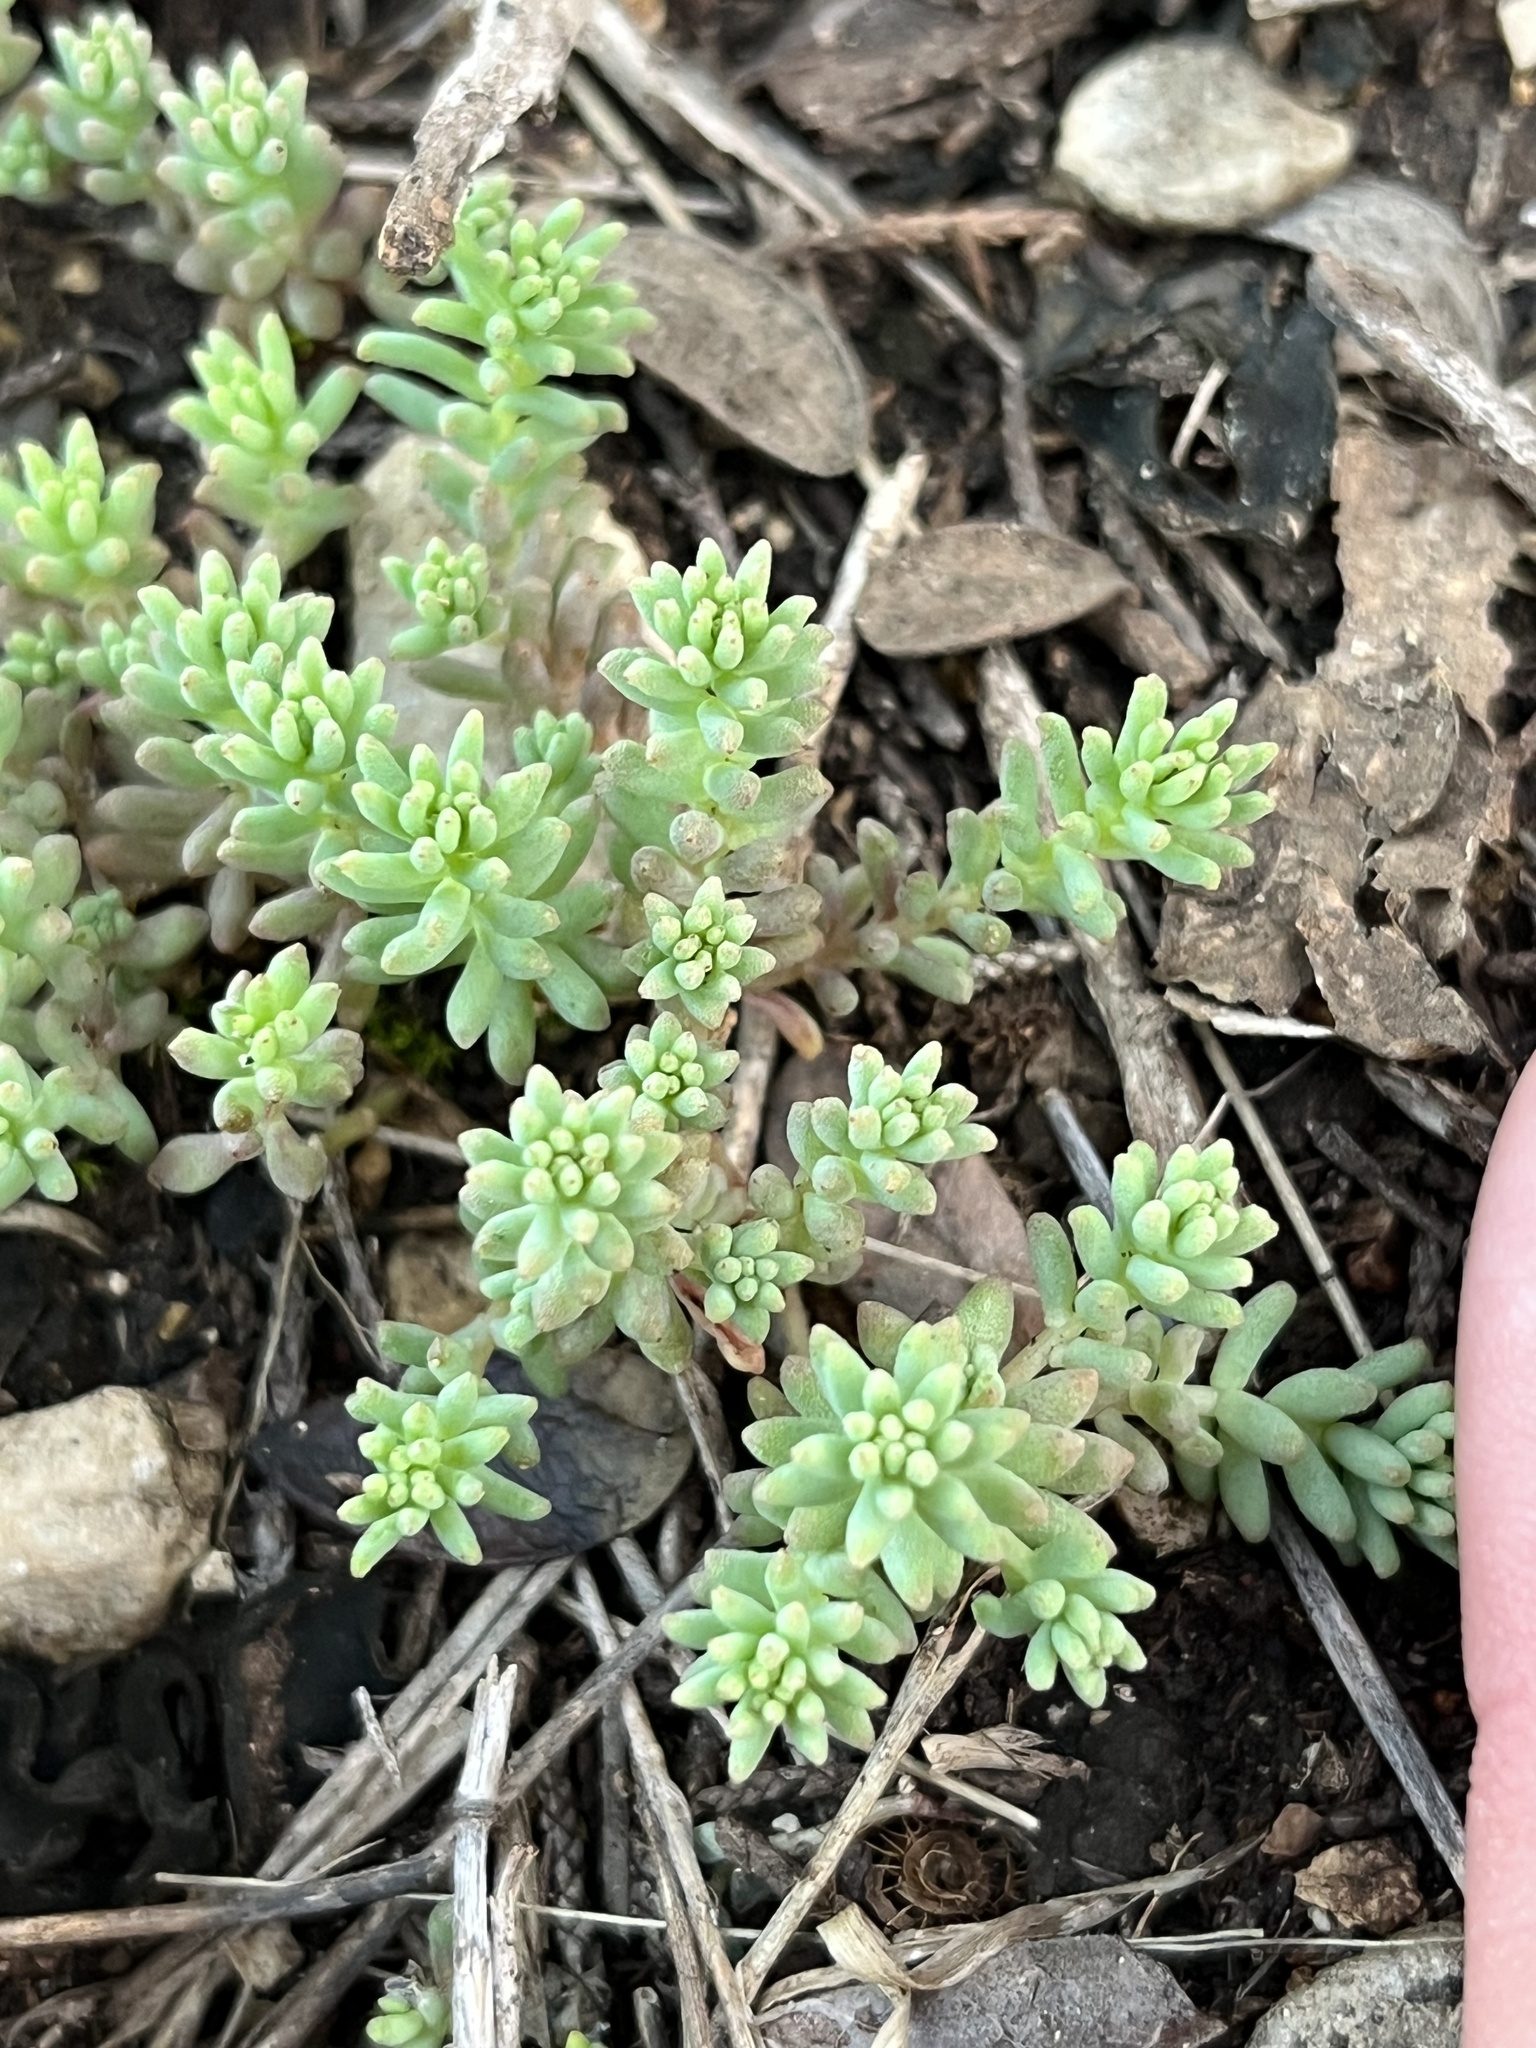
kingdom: Plantae
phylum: Tracheophyta
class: Magnoliopsida
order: Saxifragales
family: Crassulaceae
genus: Sedum
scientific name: Sedum nuttallii
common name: Yellow stonecrop
